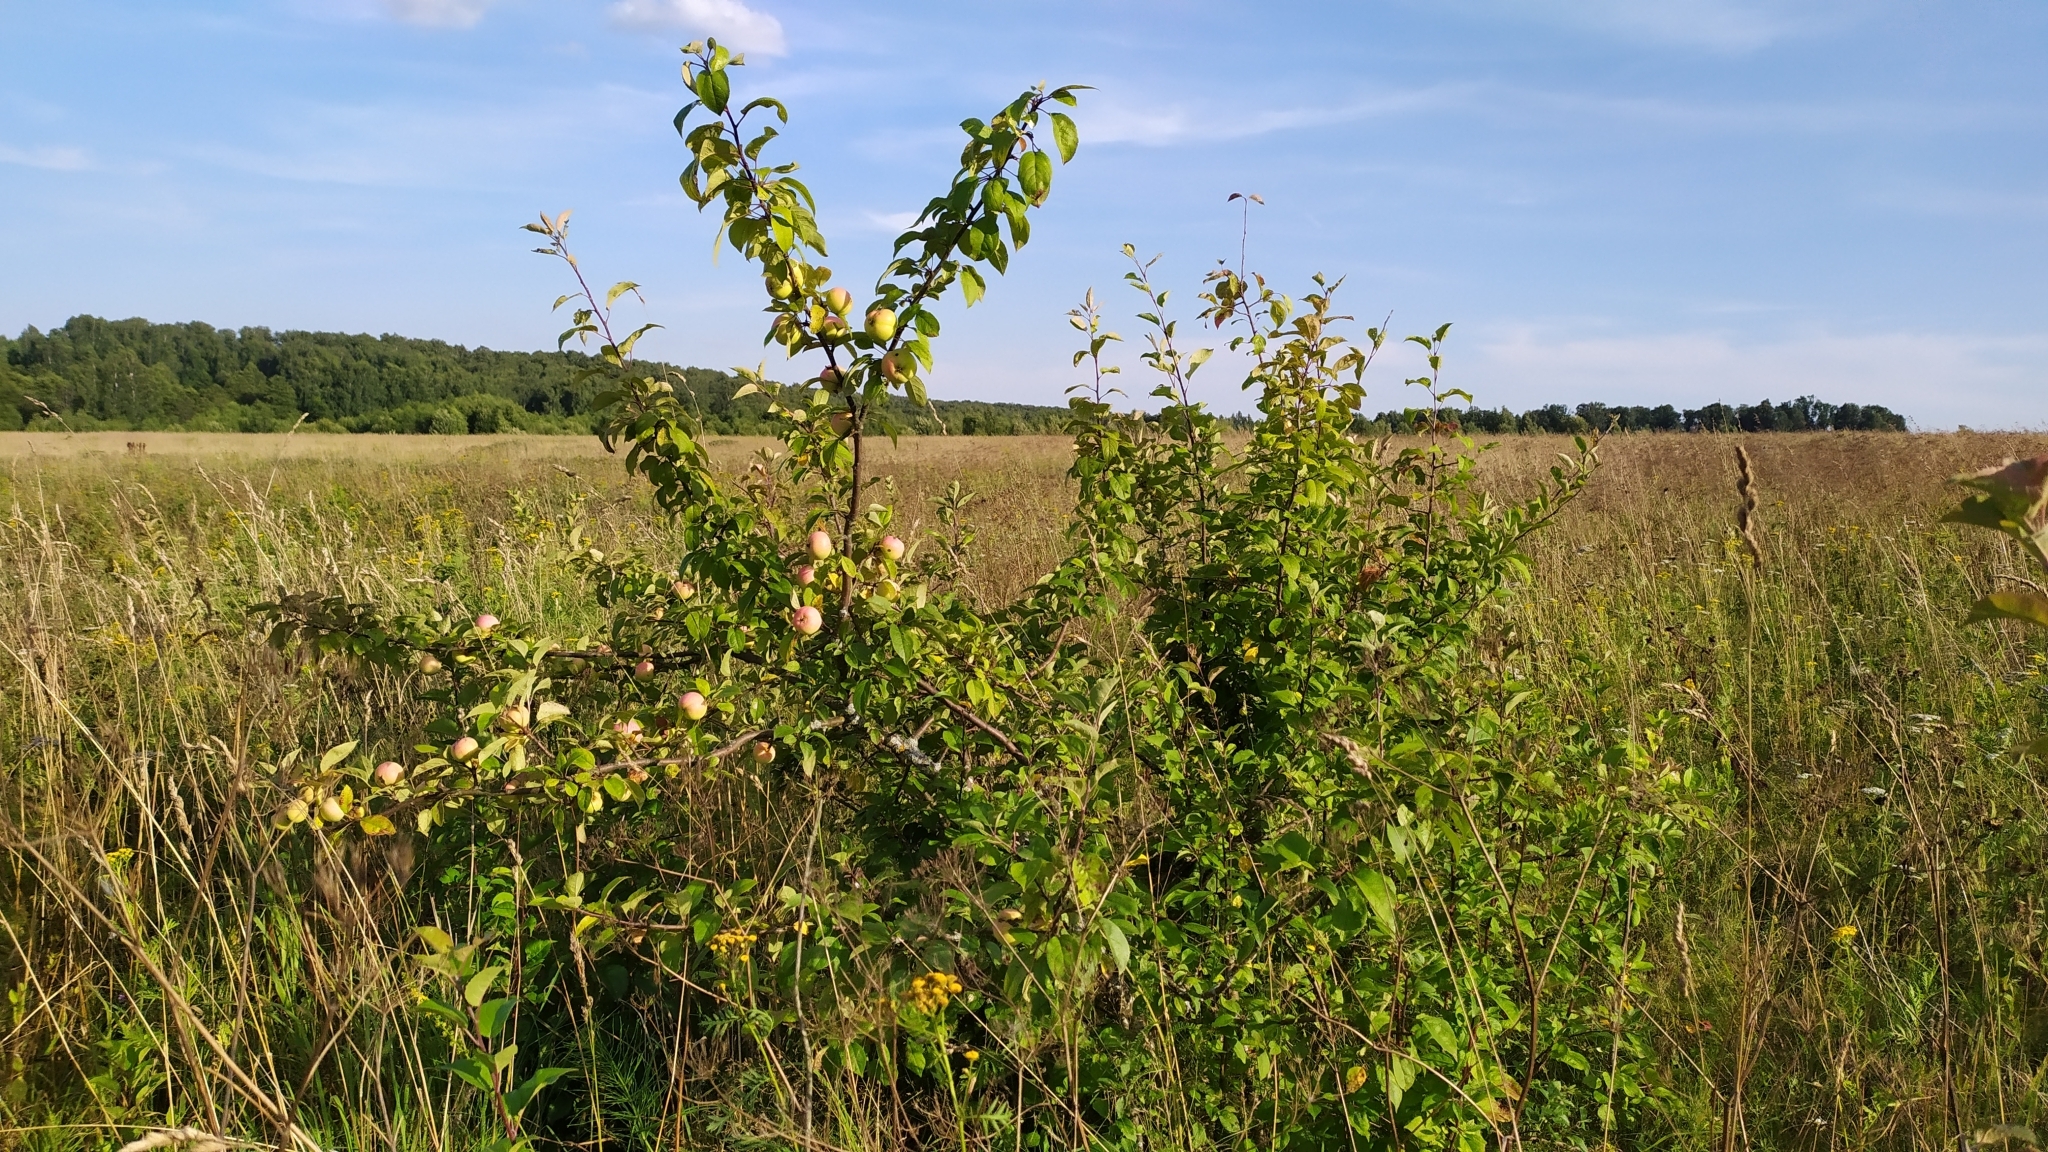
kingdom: Plantae
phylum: Tracheophyta
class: Magnoliopsida
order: Rosales
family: Rosaceae
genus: Malus
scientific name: Malus domestica
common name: Apple
